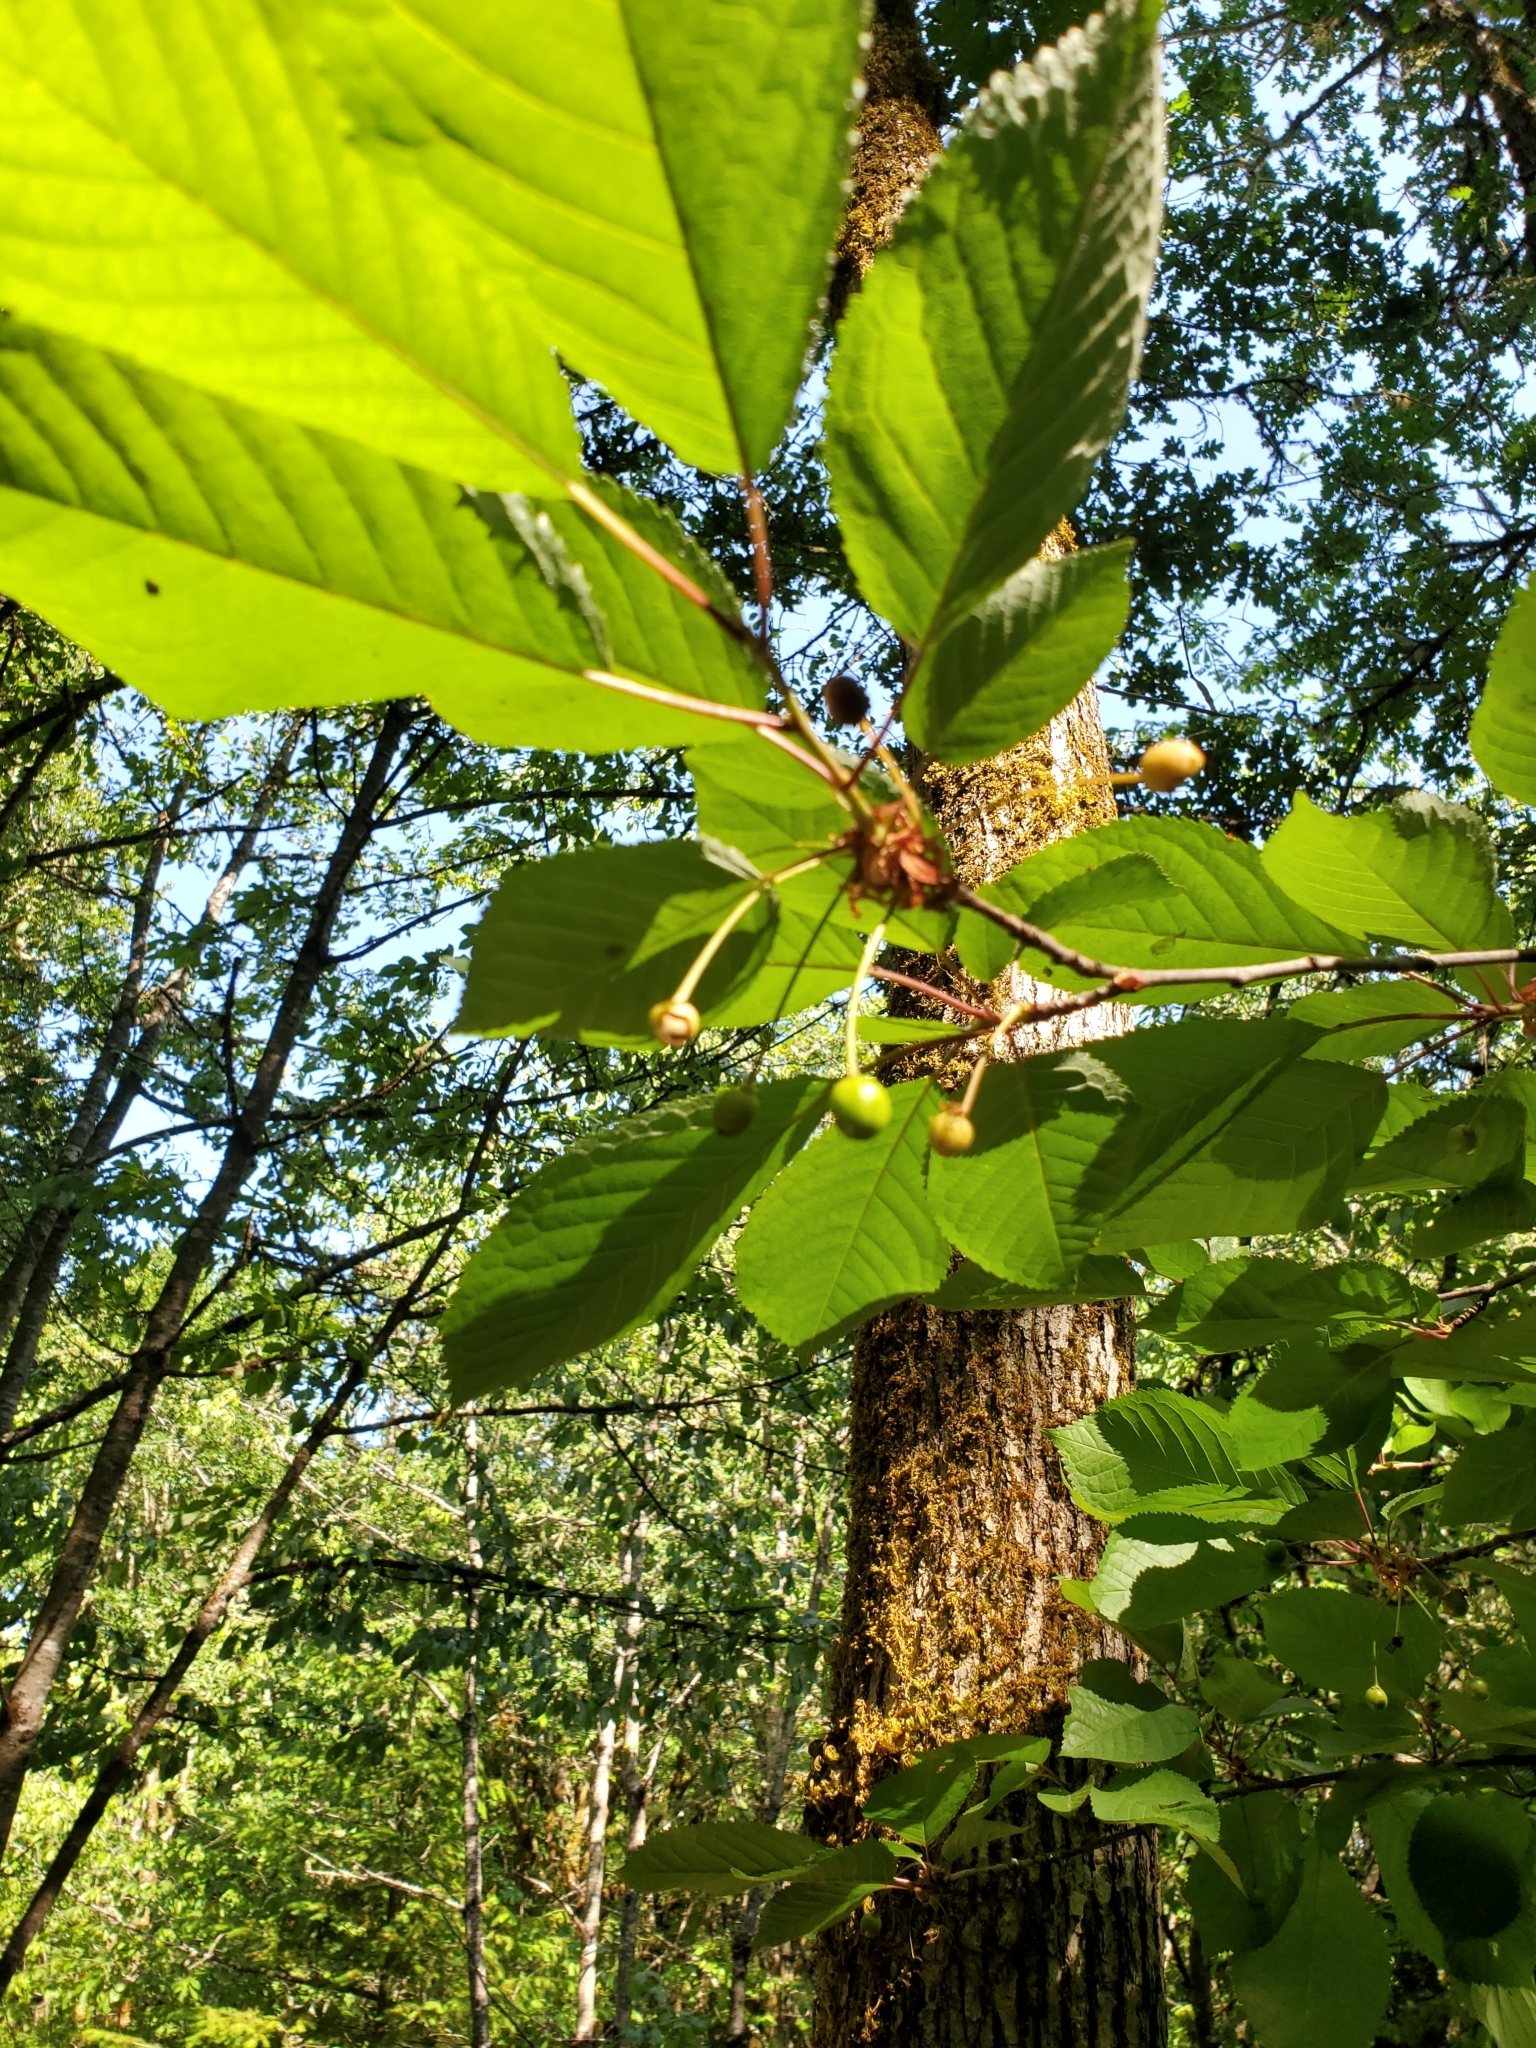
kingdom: Plantae
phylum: Tracheophyta
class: Magnoliopsida
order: Rosales
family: Rosaceae
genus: Prunus
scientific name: Prunus avium
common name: Sweet cherry
